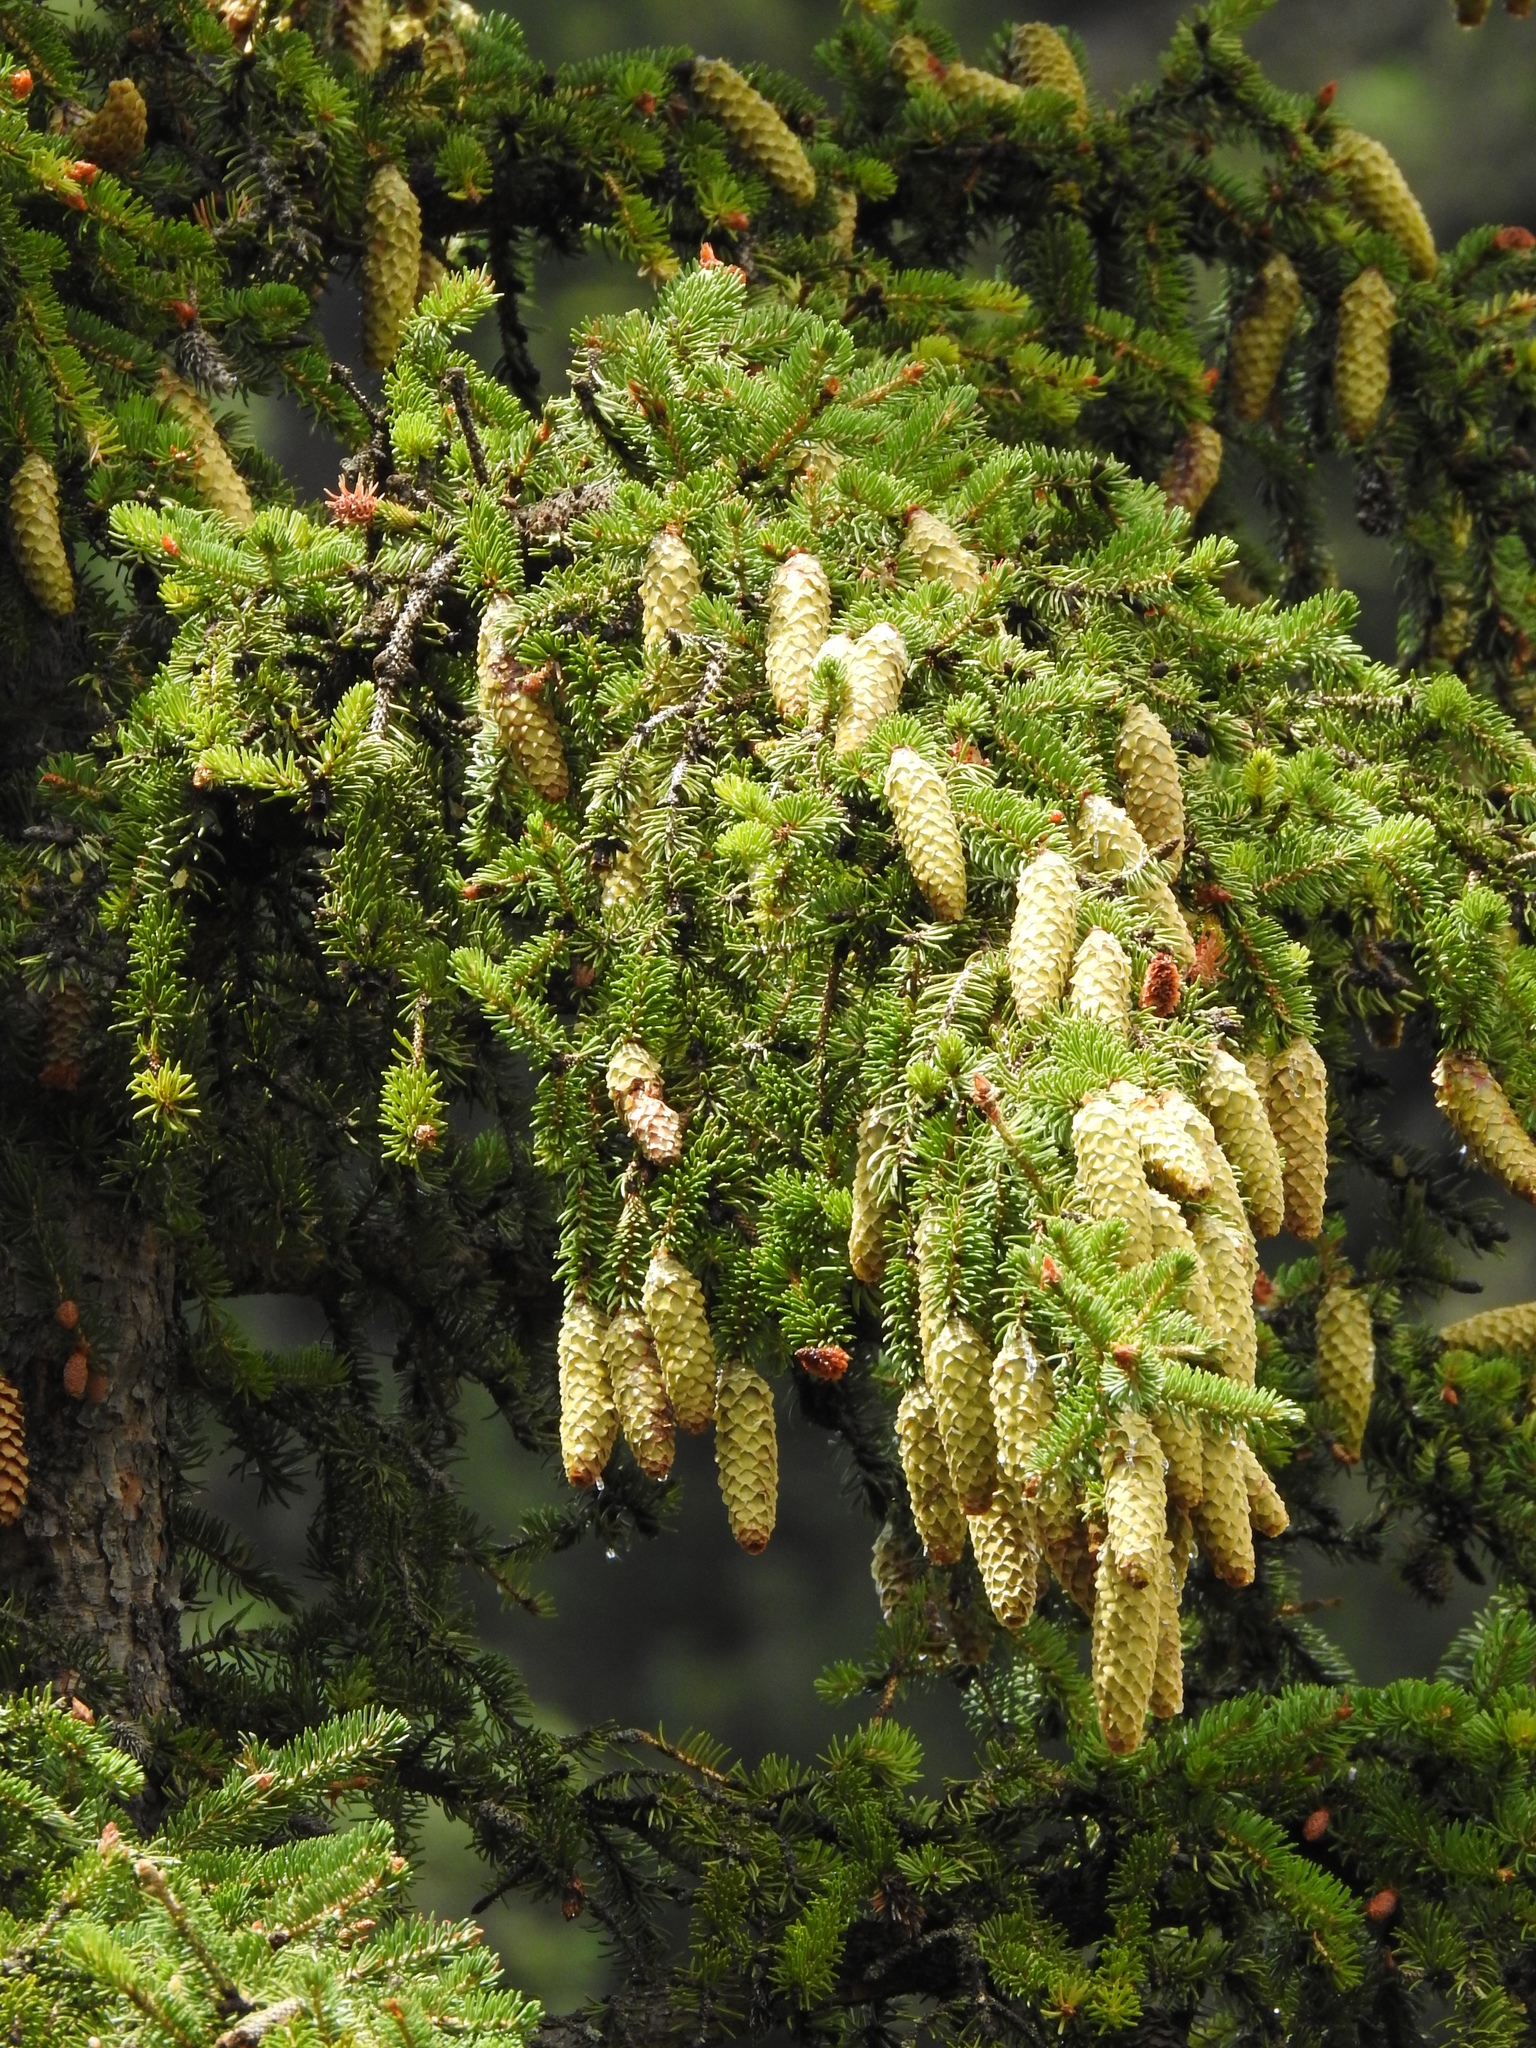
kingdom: Plantae
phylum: Tracheophyta
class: Pinopsida
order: Pinales
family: Pinaceae
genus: Picea
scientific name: Picea engelmannii
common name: Engelmann spruce
